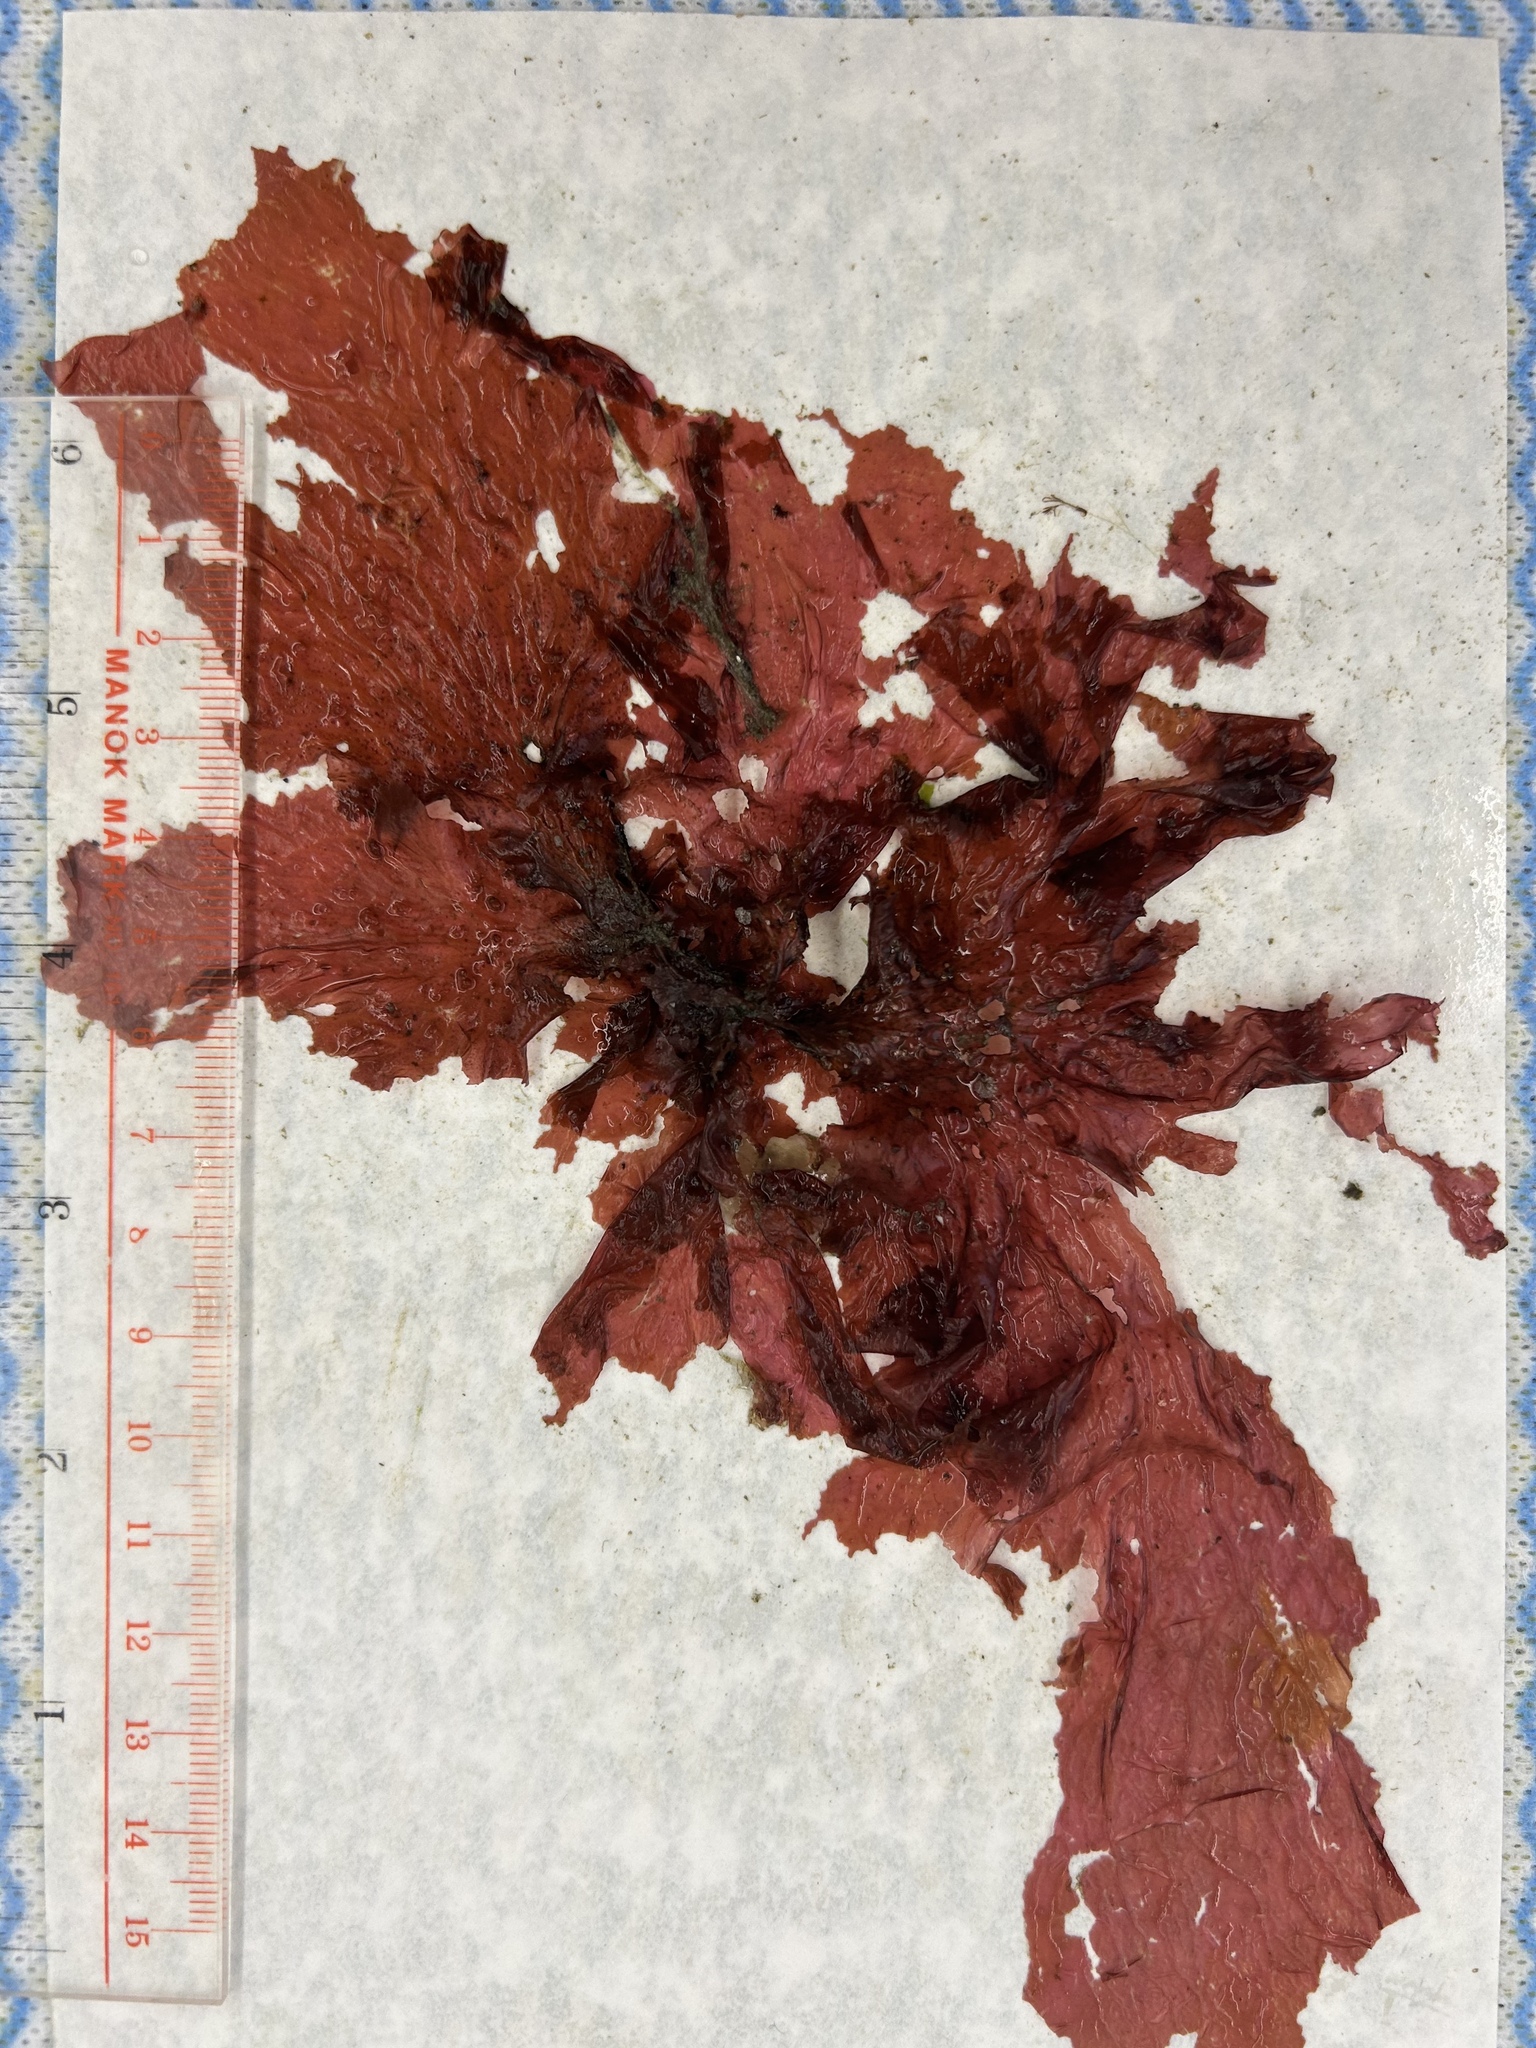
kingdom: Plantae
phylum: Rhodophyta
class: Florideophyceae
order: Ceramiales
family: Delesseriaceae
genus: Polyneura
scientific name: Polyneura latissima
